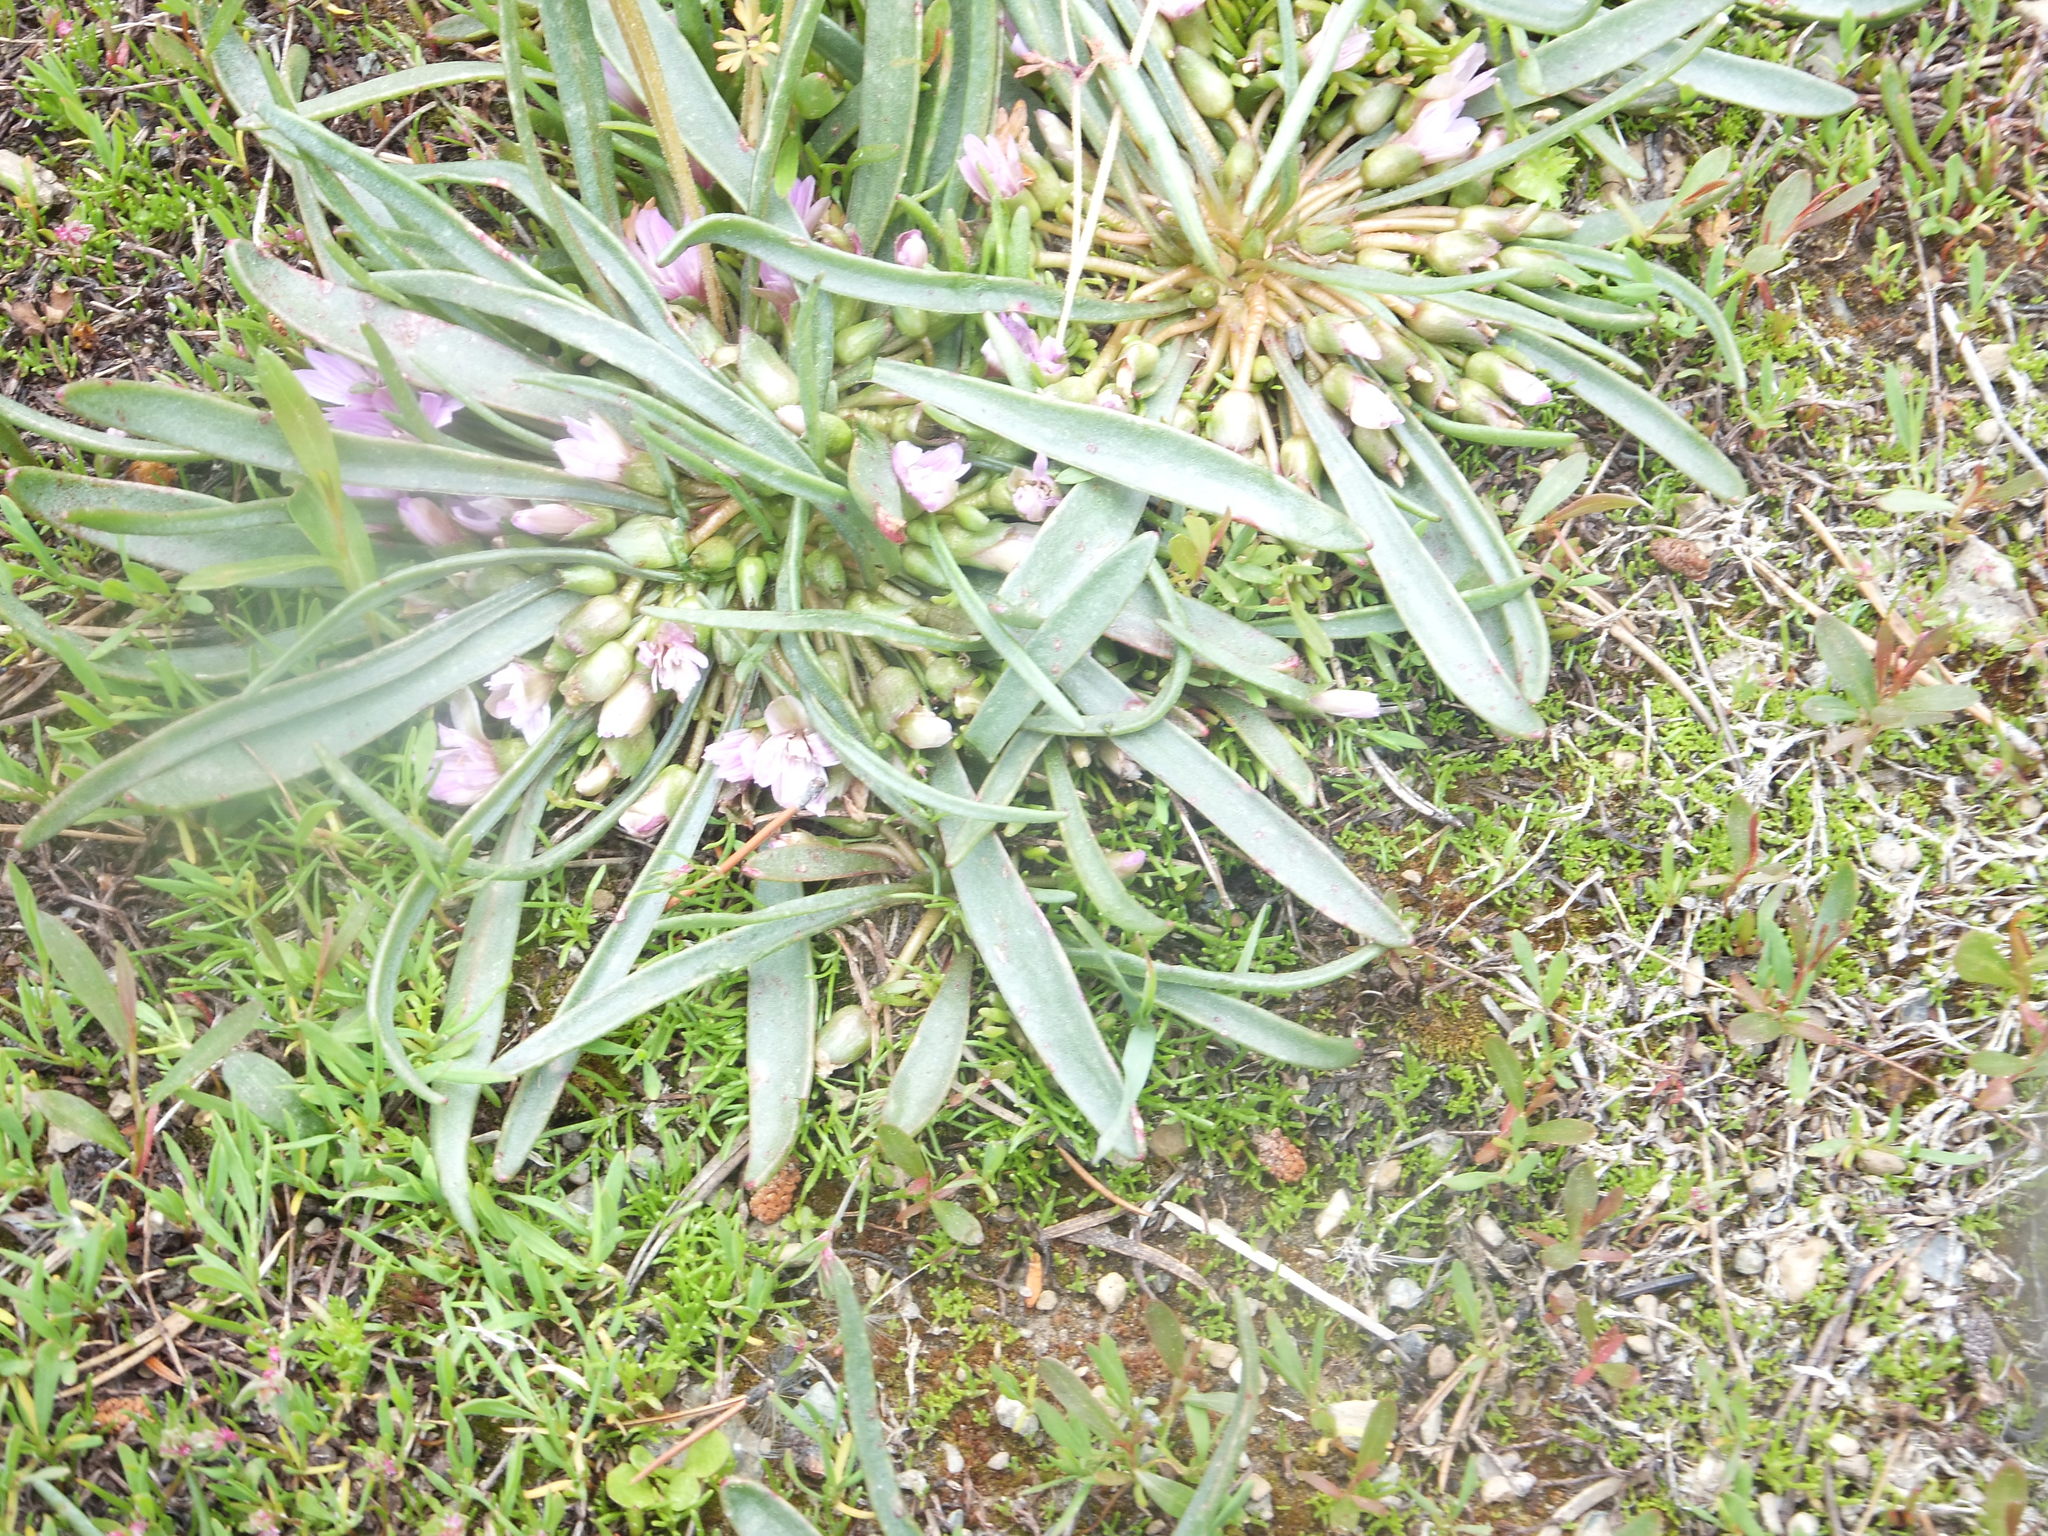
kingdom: Plantae
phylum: Tracheophyta
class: Magnoliopsida
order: Caryophyllales
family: Montiaceae
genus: Lewisia
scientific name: Lewisia pygmaea
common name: Alpine bitterroot
